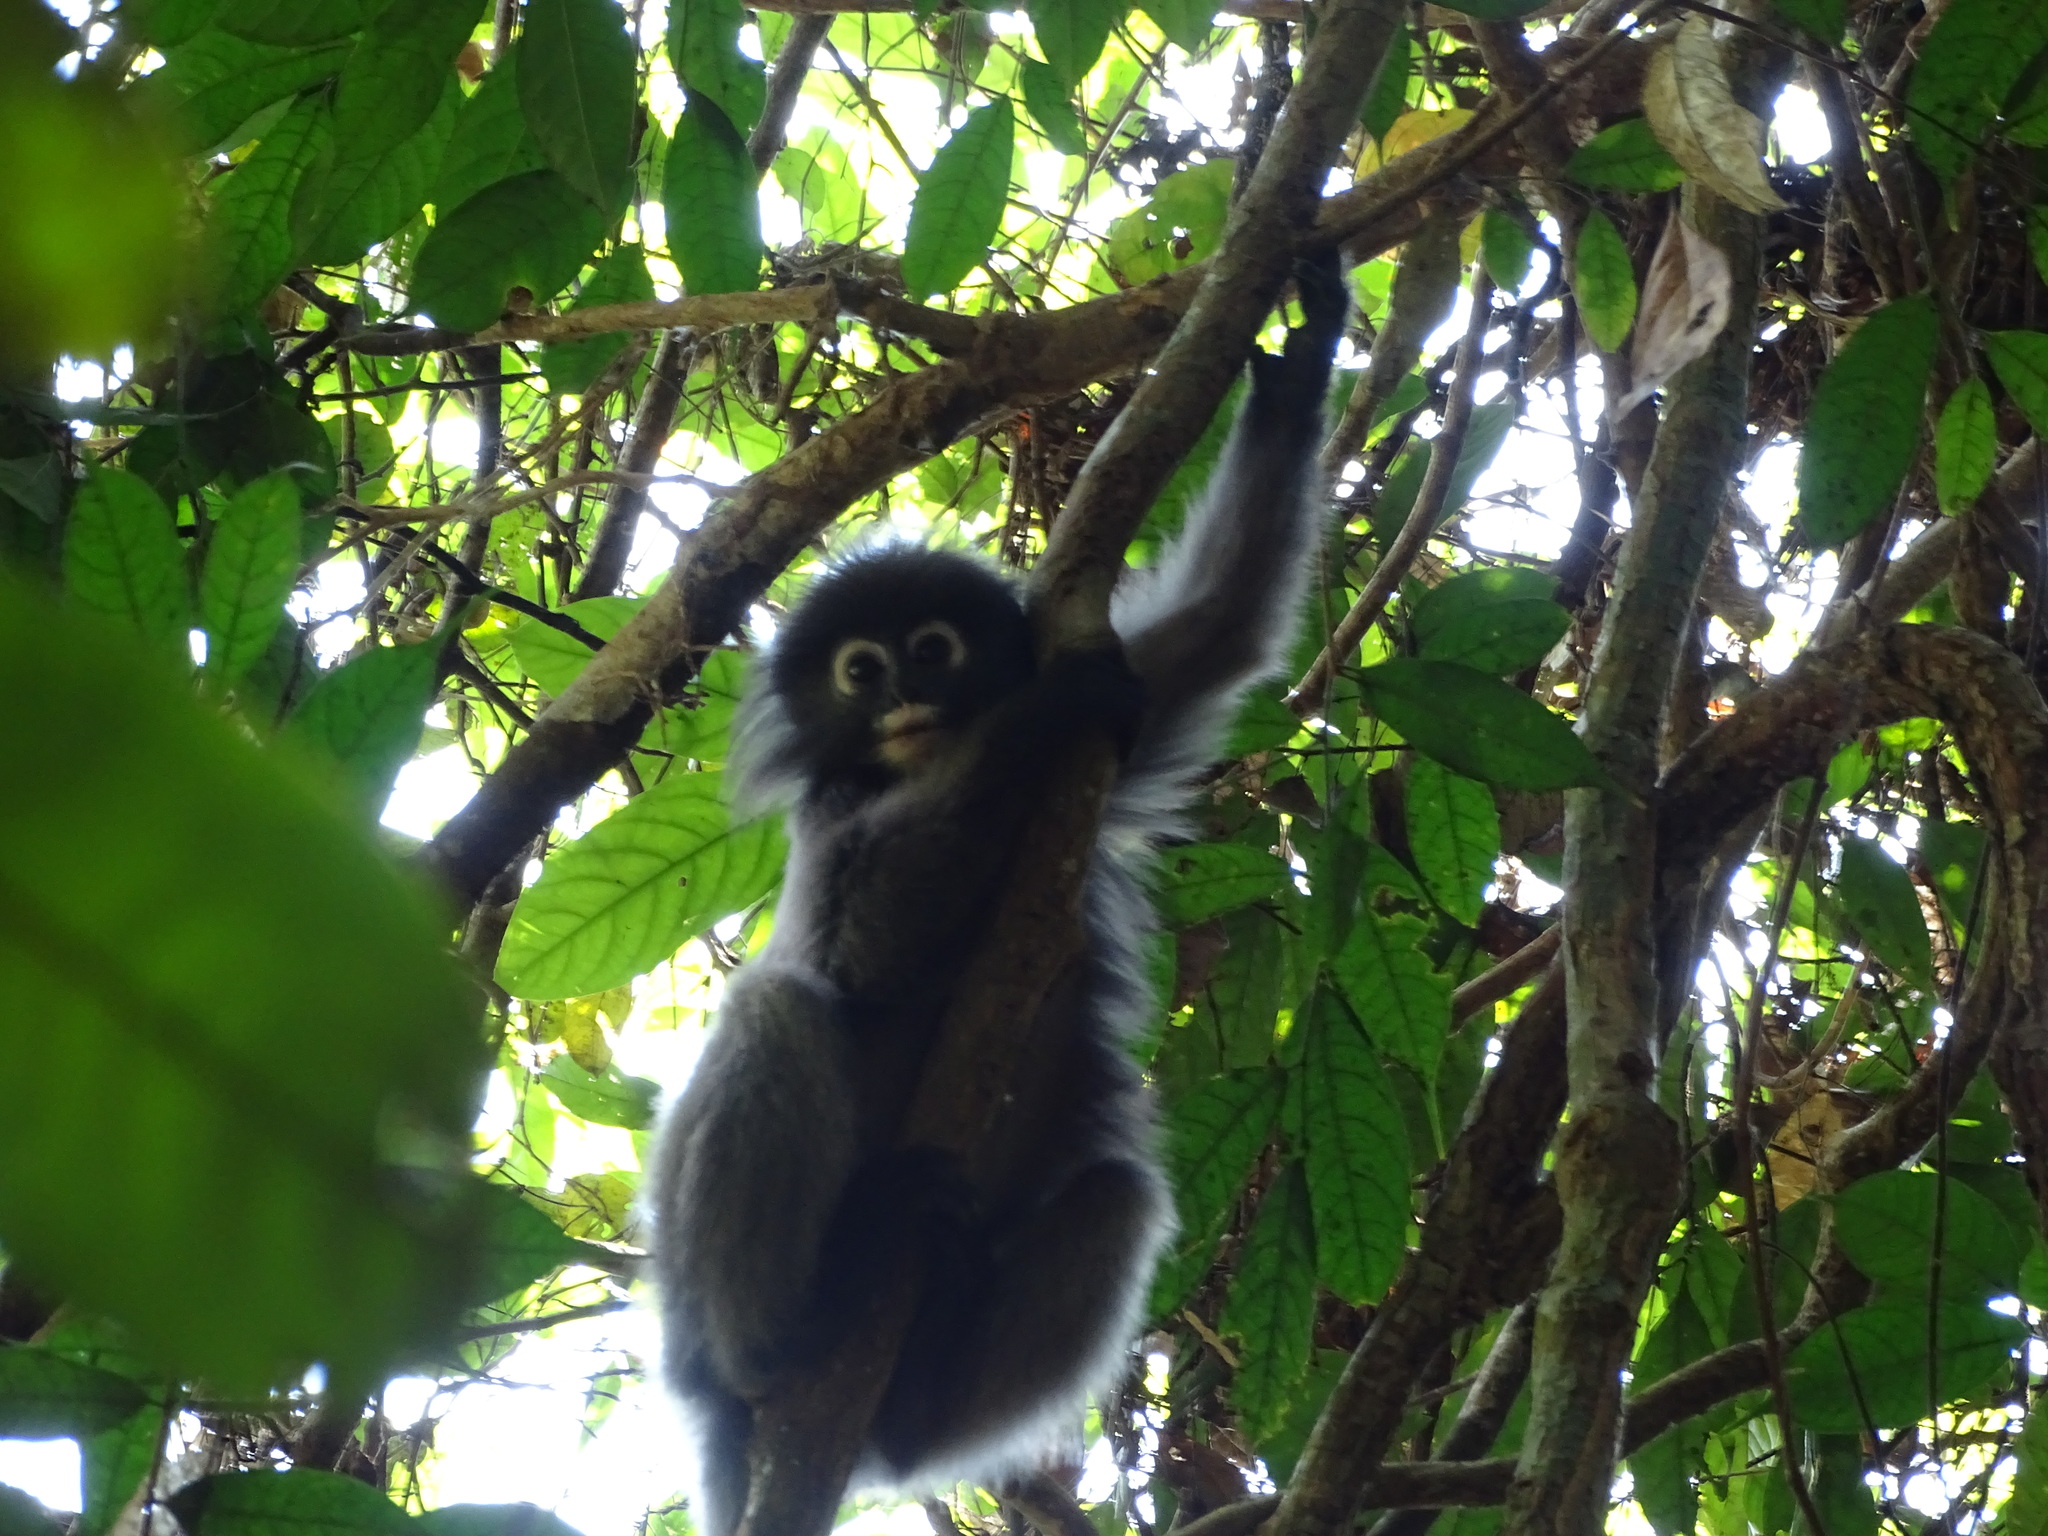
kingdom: Animalia
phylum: Chordata
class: Mammalia
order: Primates
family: Cercopithecidae
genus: Trachypithecus
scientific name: Trachypithecus obscurus
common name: Dusky leaf-monkey
